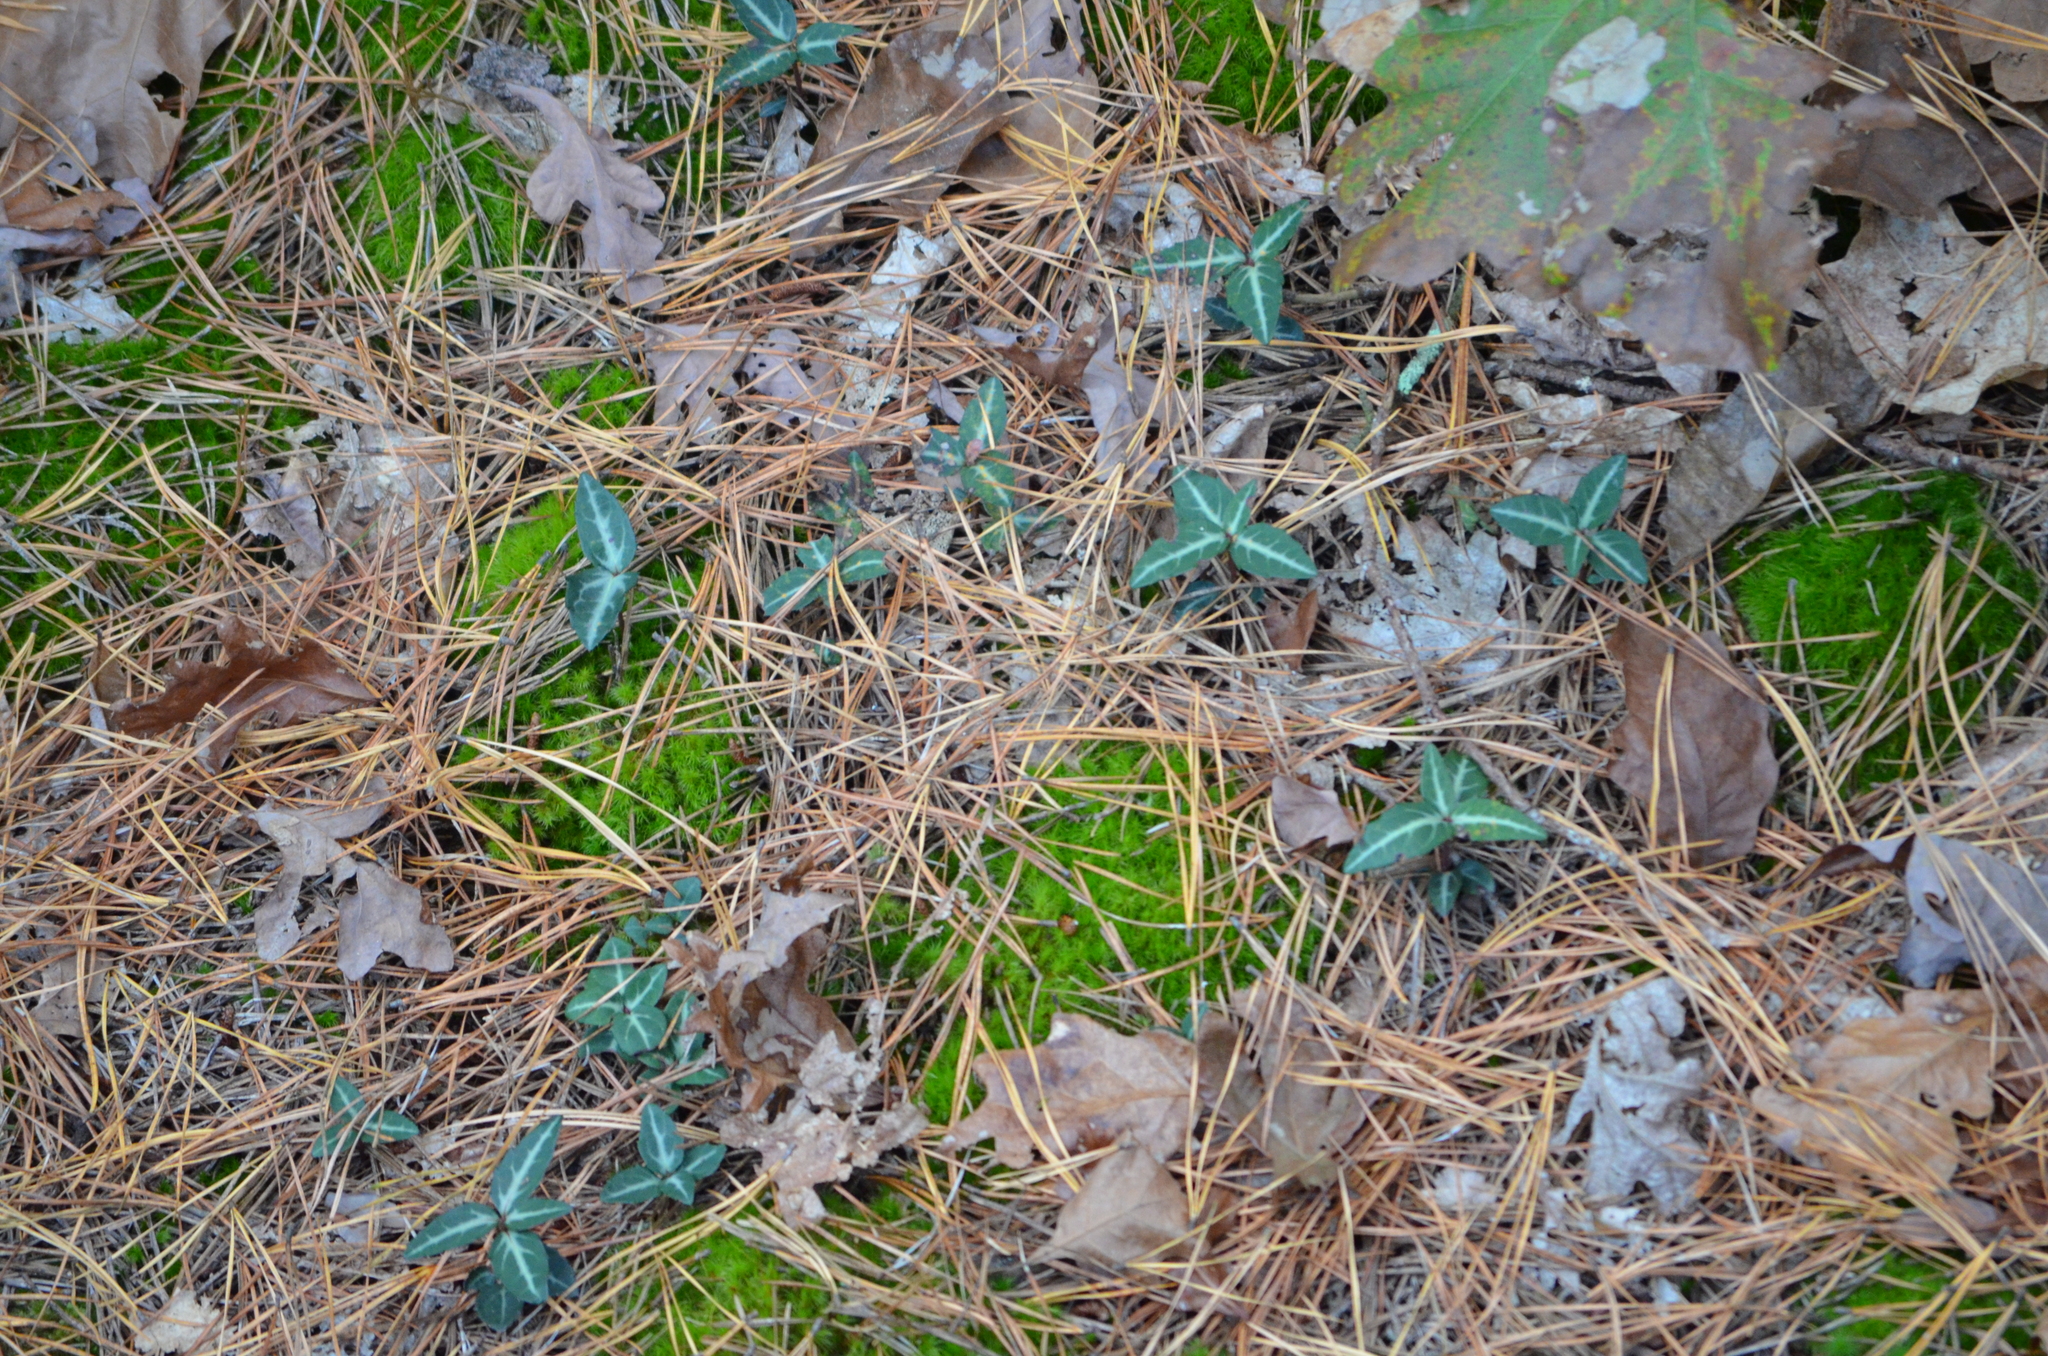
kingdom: Plantae
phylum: Tracheophyta
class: Magnoliopsida
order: Ericales
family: Ericaceae
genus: Chimaphila
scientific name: Chimaphila maculata
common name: Spotted pipsissewa
